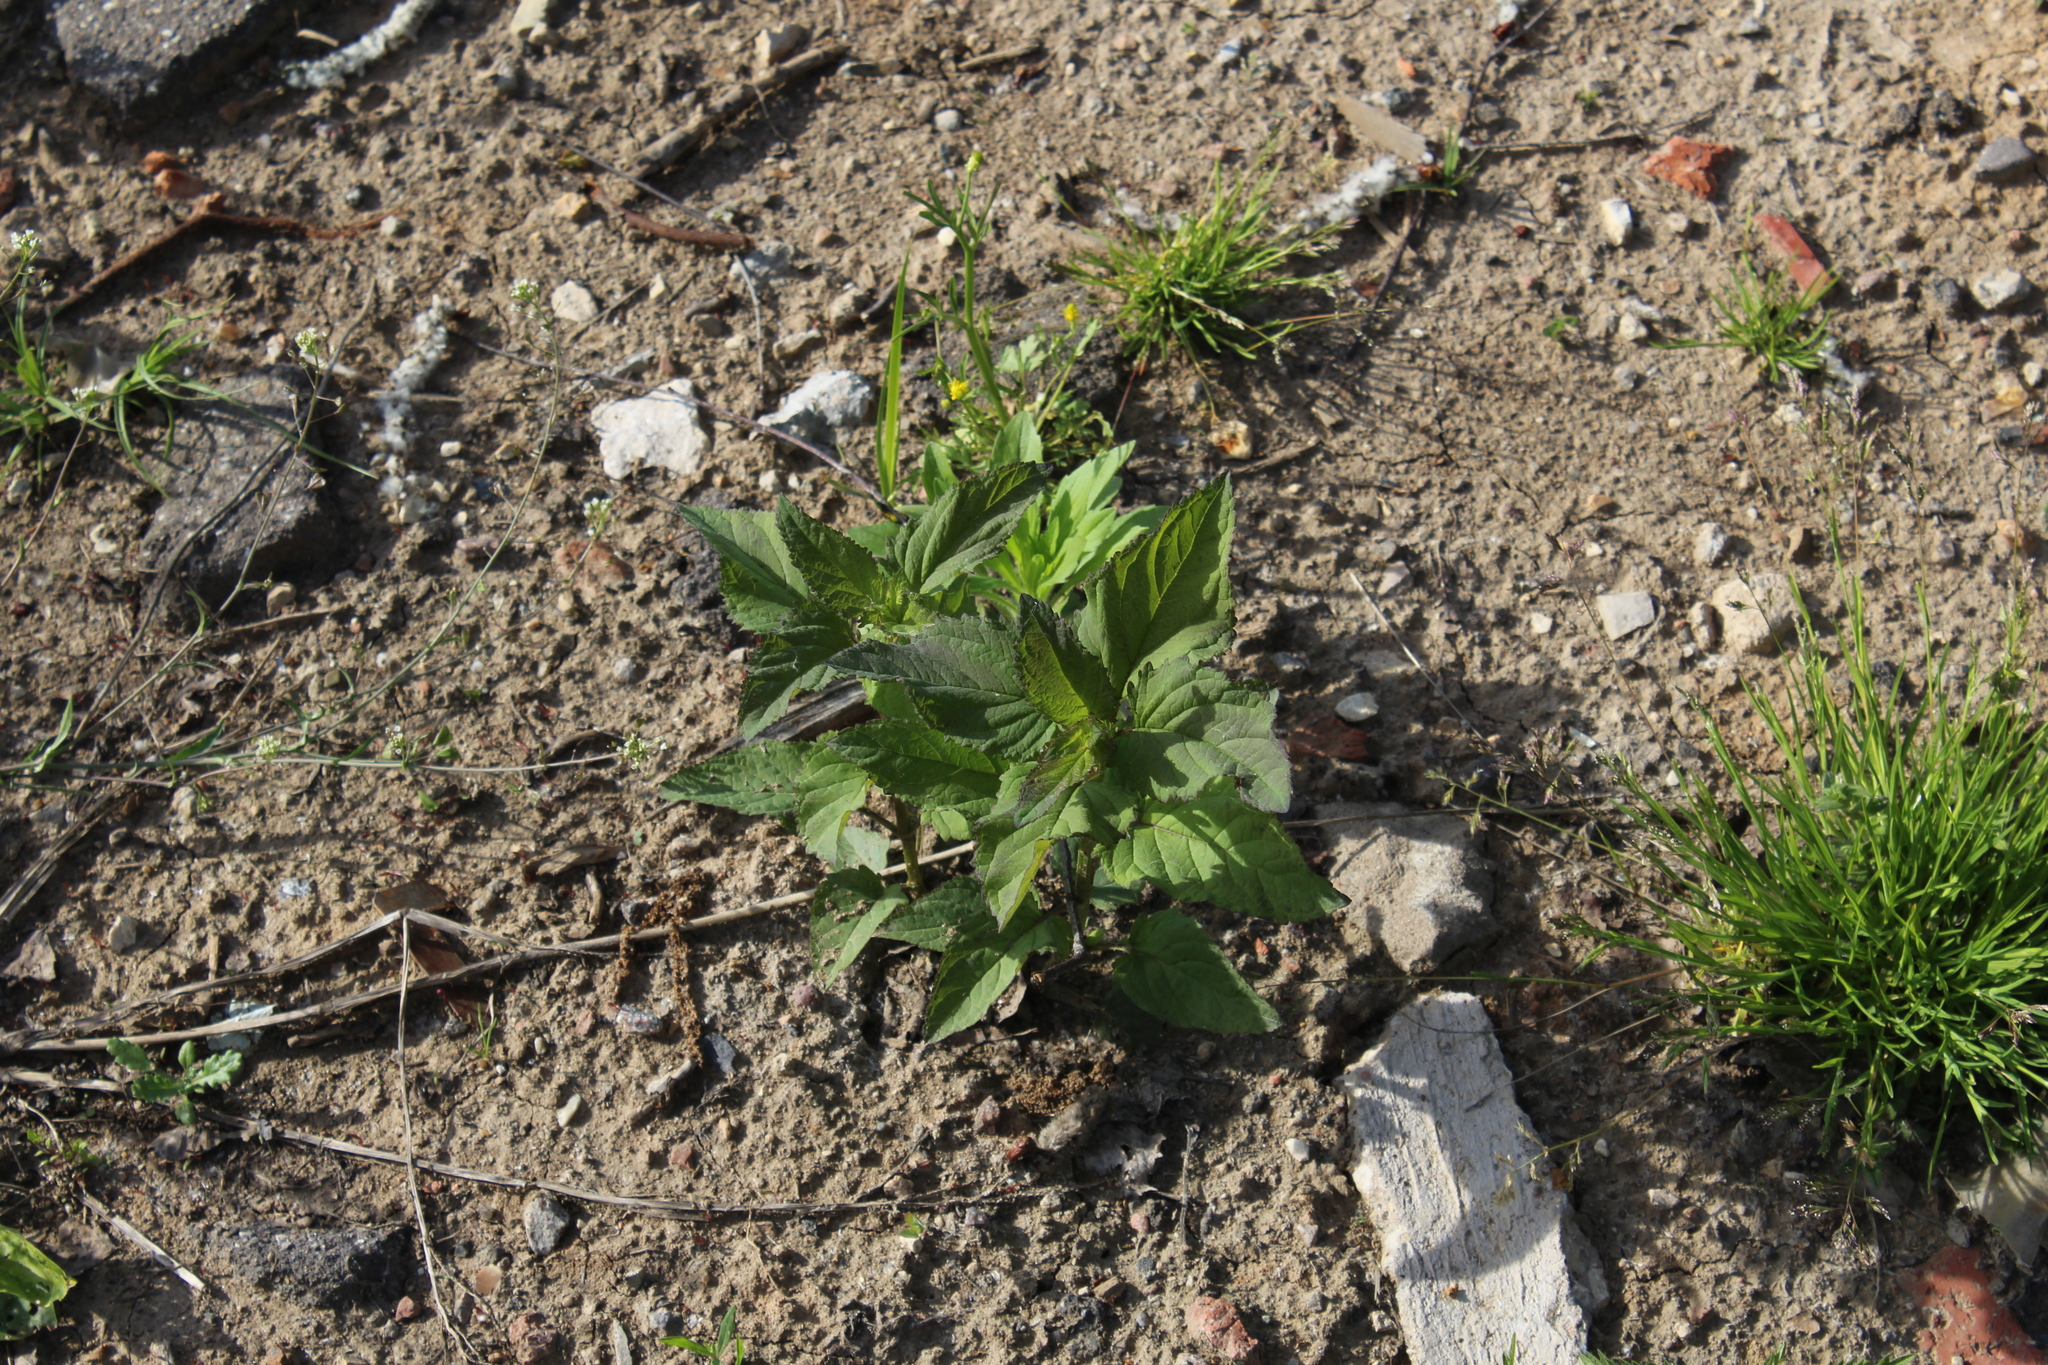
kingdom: Plantae
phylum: Tracheophyta
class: Magnoliopsida
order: Lamiales
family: Scrophulariaceae
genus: Scrophularia
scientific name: Scrophularia nodosa
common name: Common figwort
